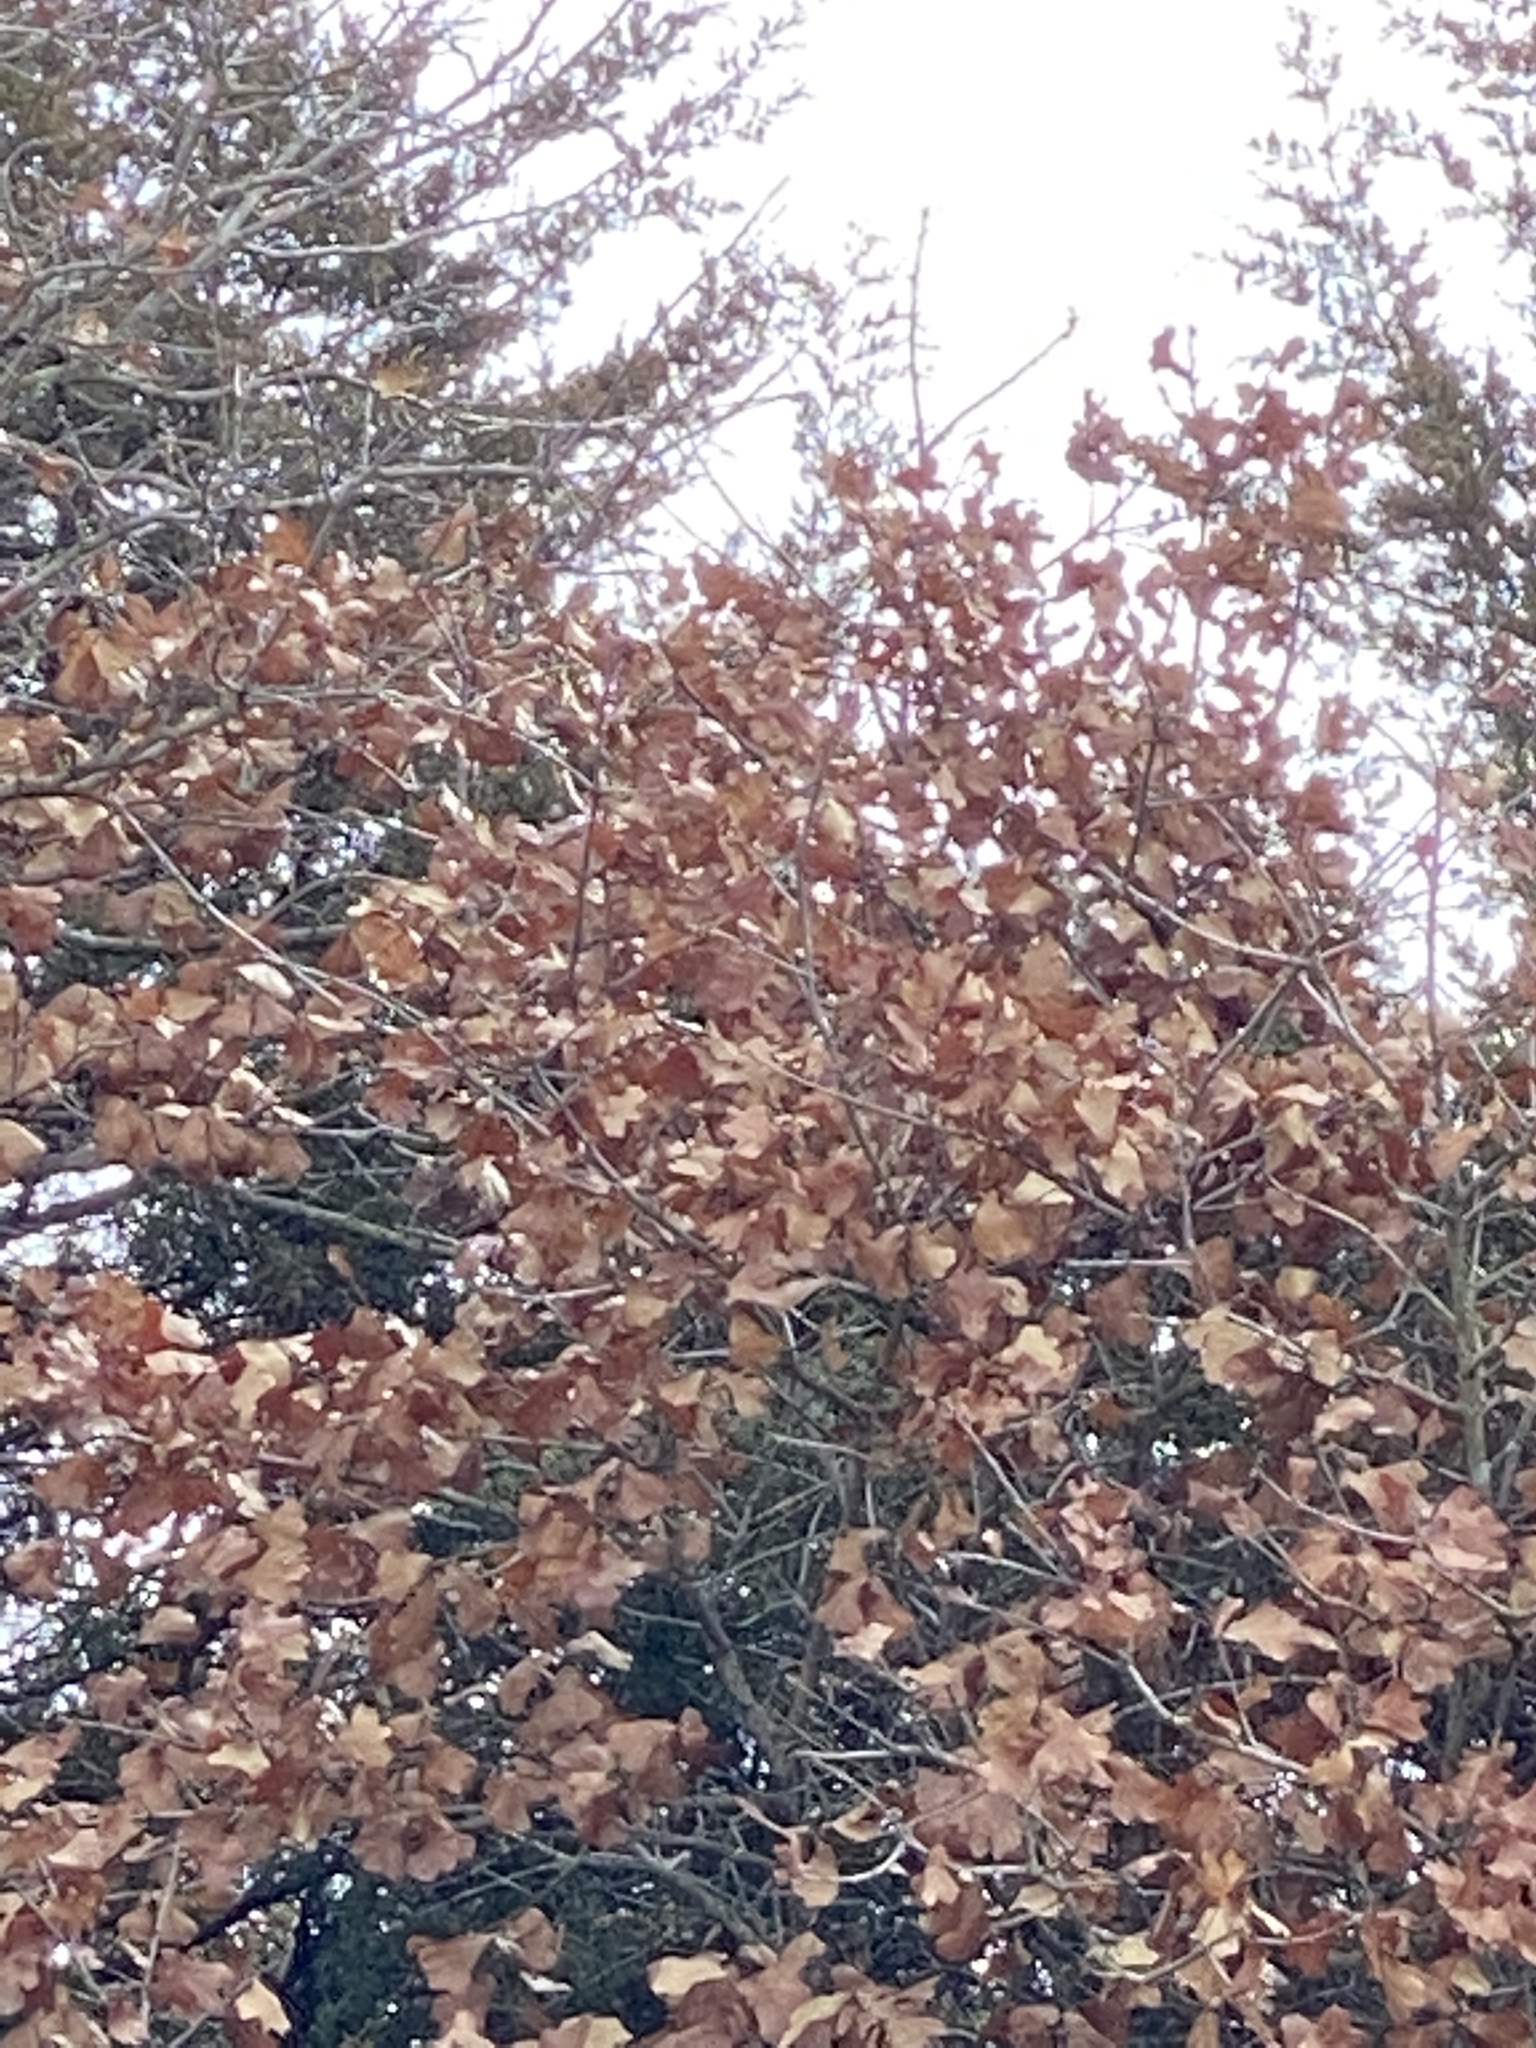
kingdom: Plantae
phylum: Tracheophyta
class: Magnoliopsida
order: Fagales
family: Fagaceae
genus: Quercus
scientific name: Quercus marilandica
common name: Blackjack oak
